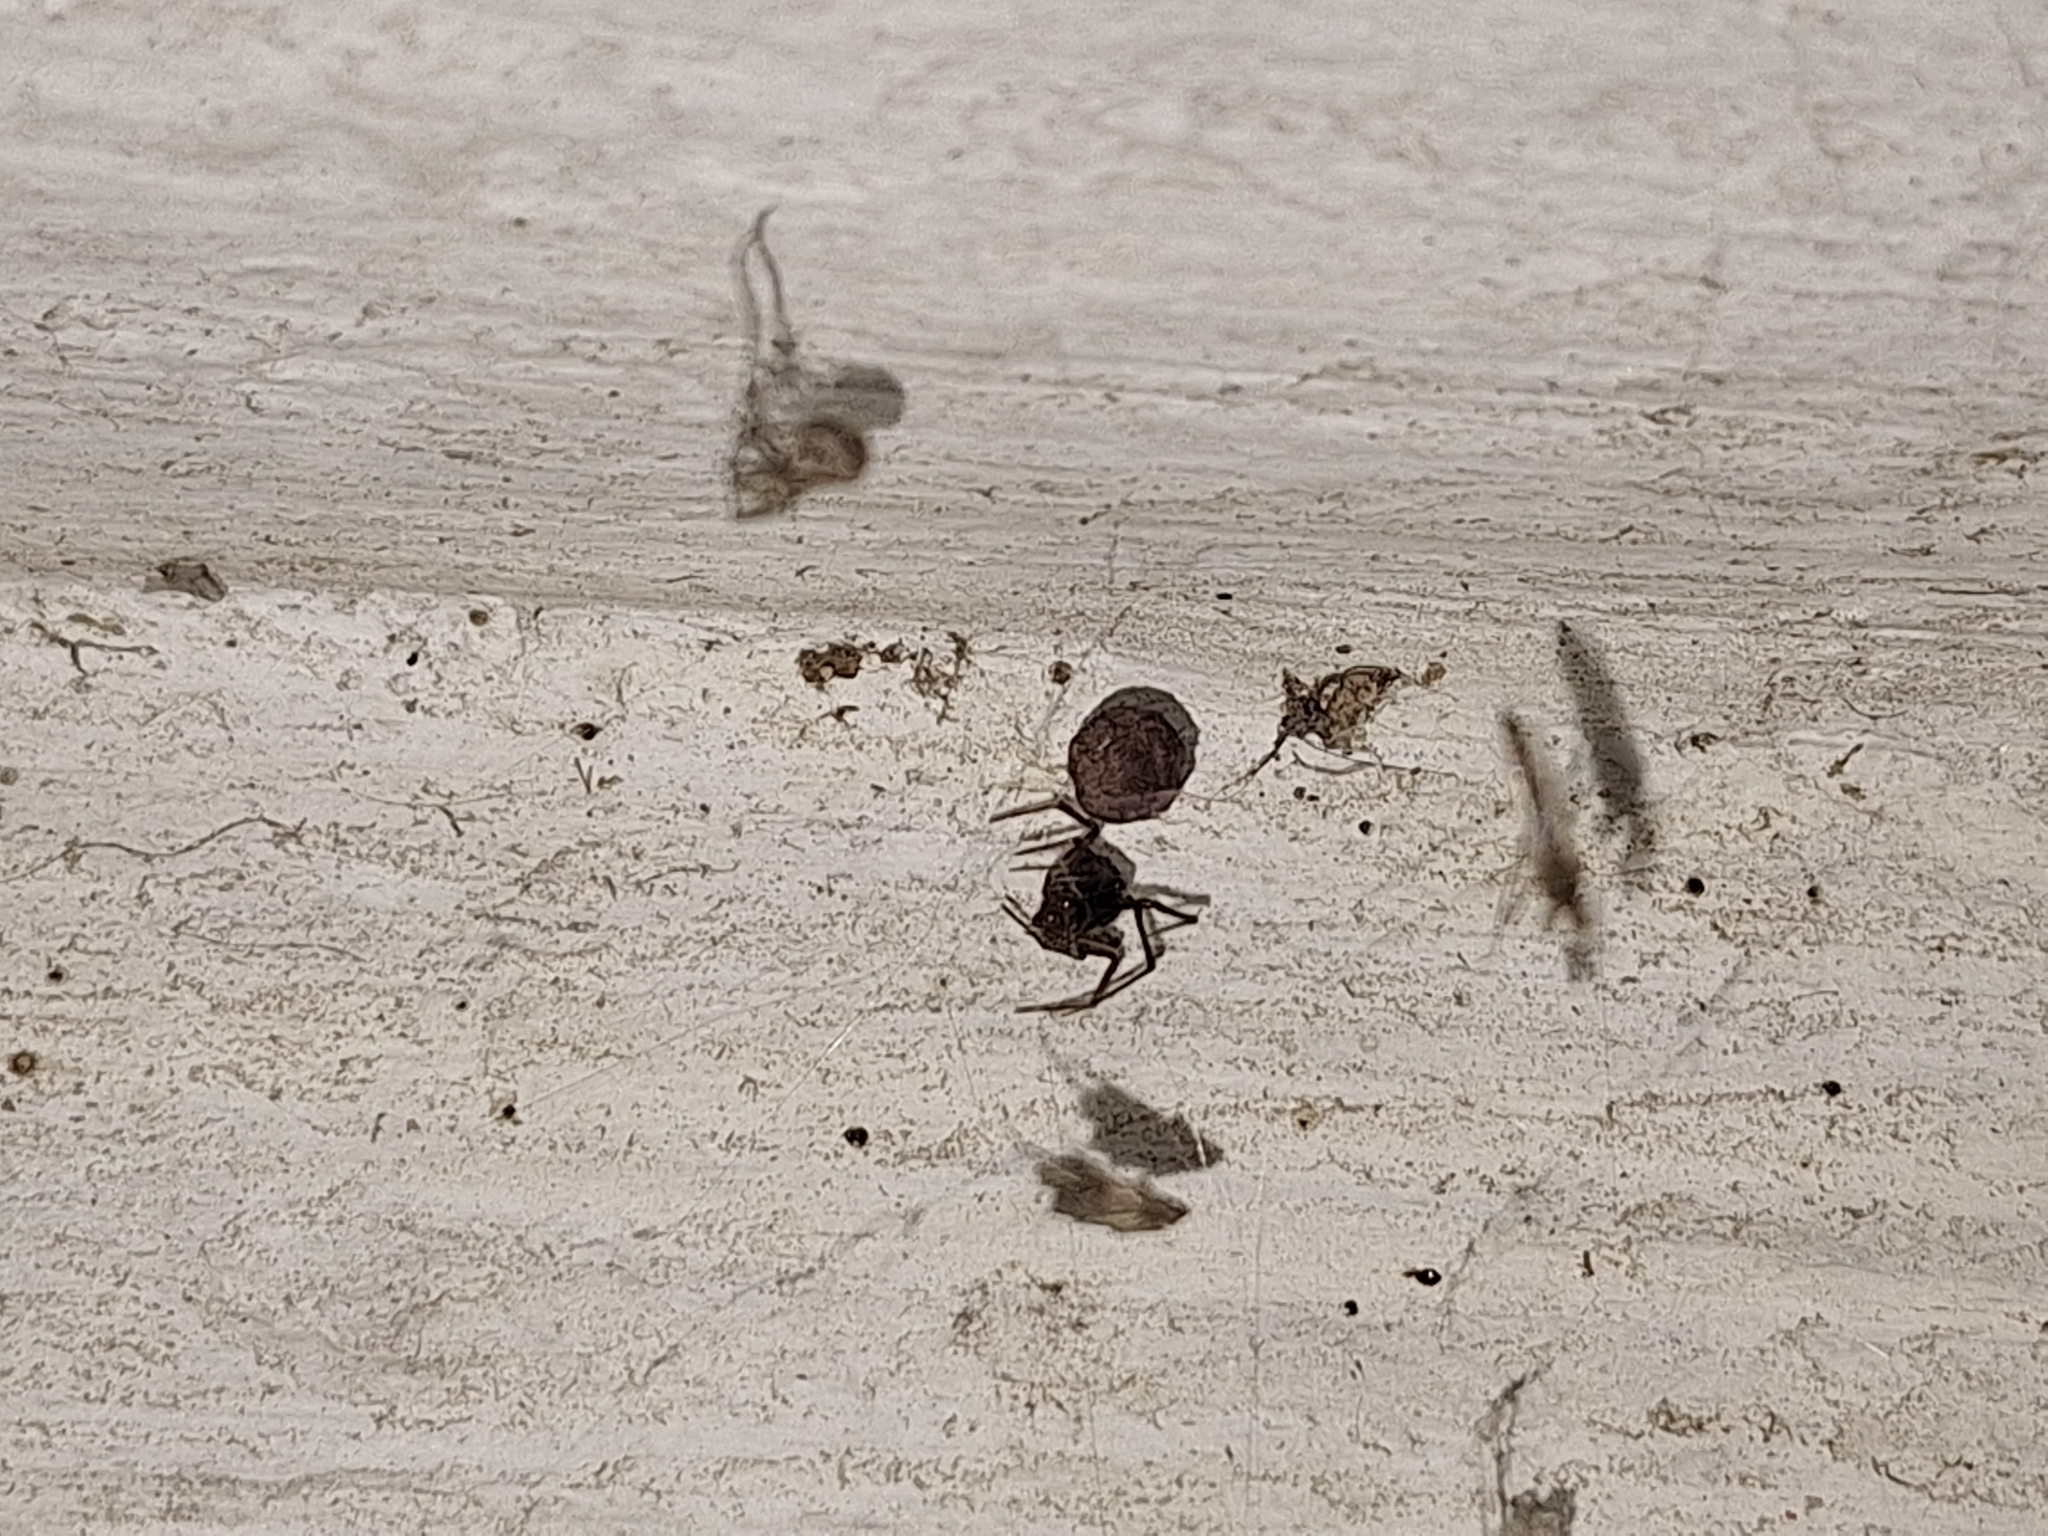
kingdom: Animalia
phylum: Arthropoda
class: Arachnida
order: Araneae
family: Theridiidae
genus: Steatoda
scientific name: Steatoda triangulosa
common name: Triangulate bud spider
